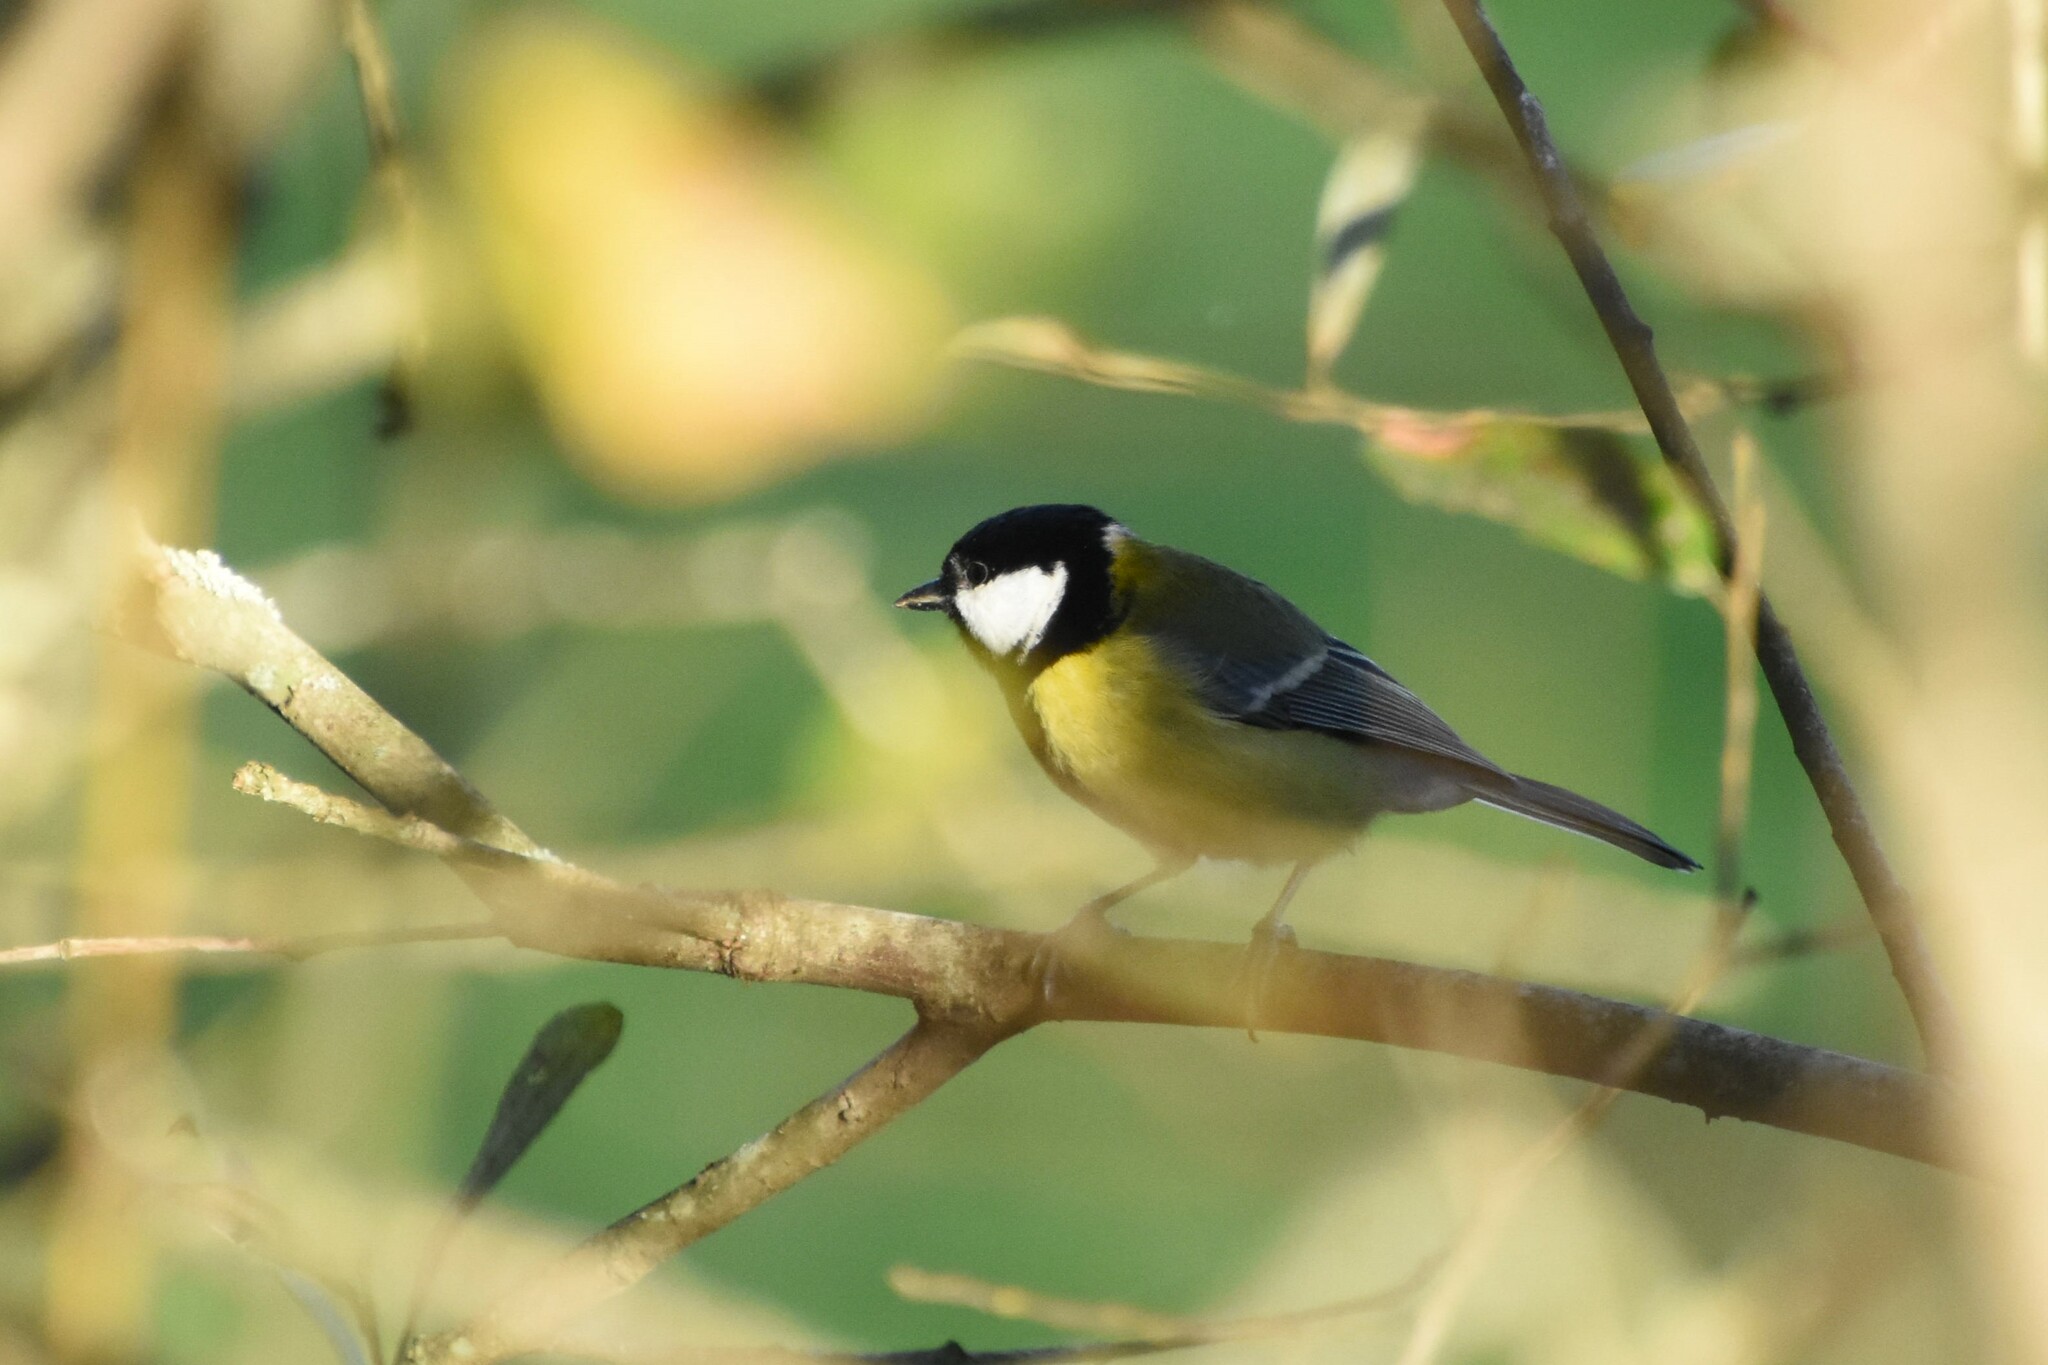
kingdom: Animalia
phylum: Chordata
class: Aves
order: Passeriformes
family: Paridae
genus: Parus
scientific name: Parus major
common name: Great tit
